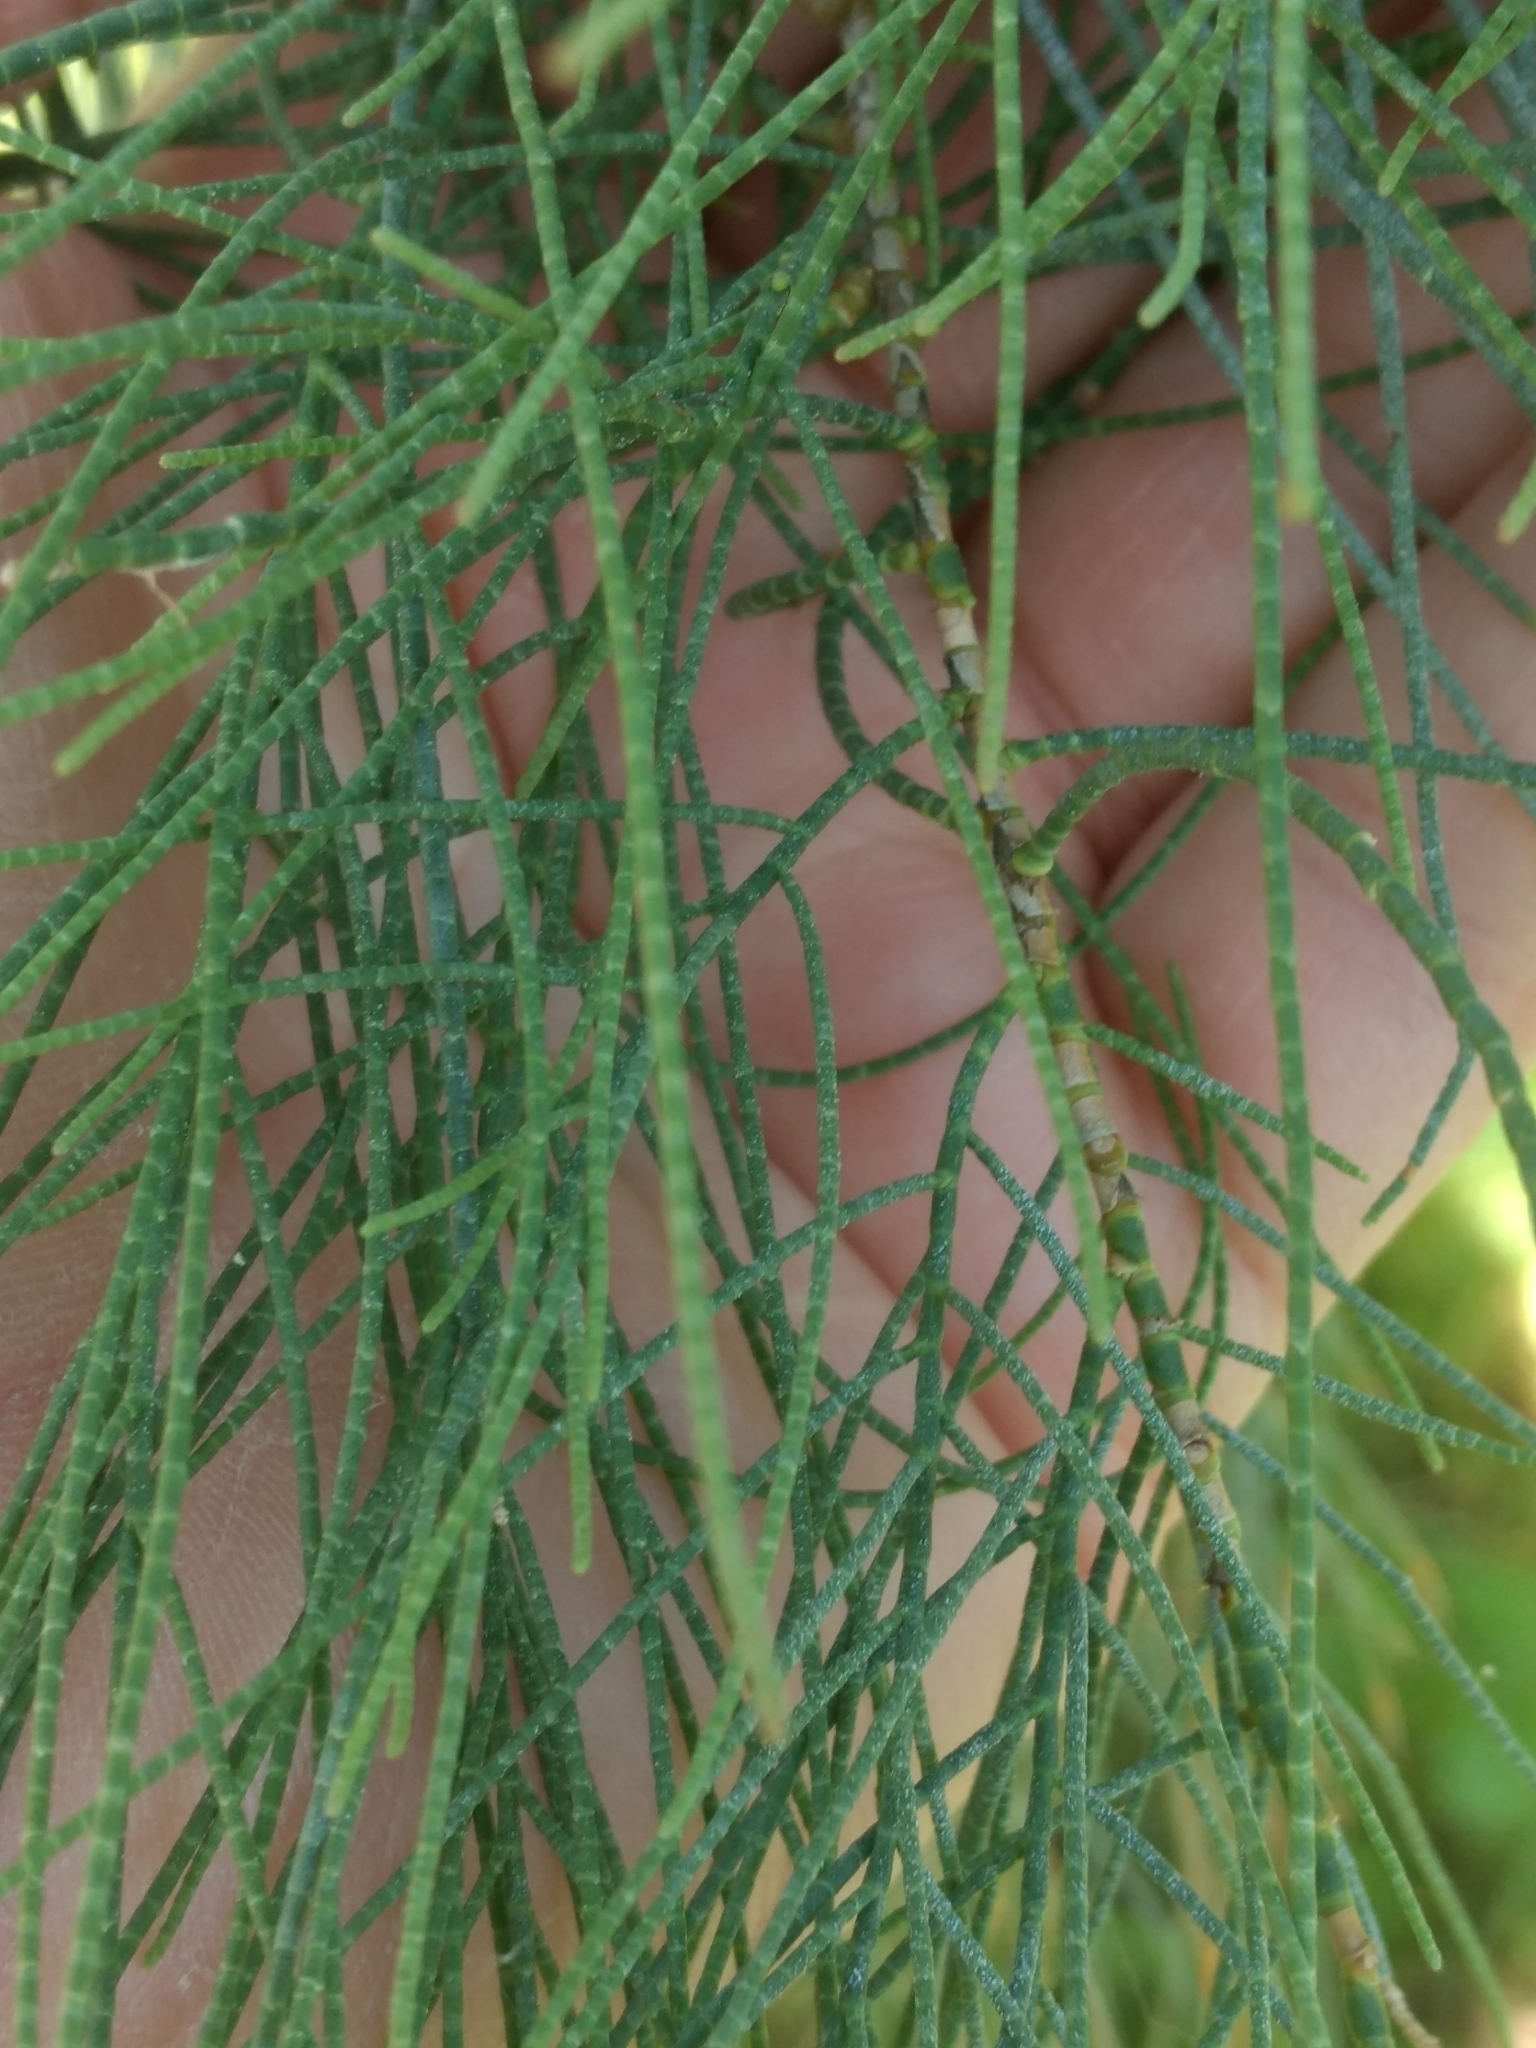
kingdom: Plantae
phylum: Tracheophyta
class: Magnoliopsida
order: Caryophyllales
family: Tamaricaceae
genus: Tamarix
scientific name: Tamarix aphylla
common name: Athel tamarisk
